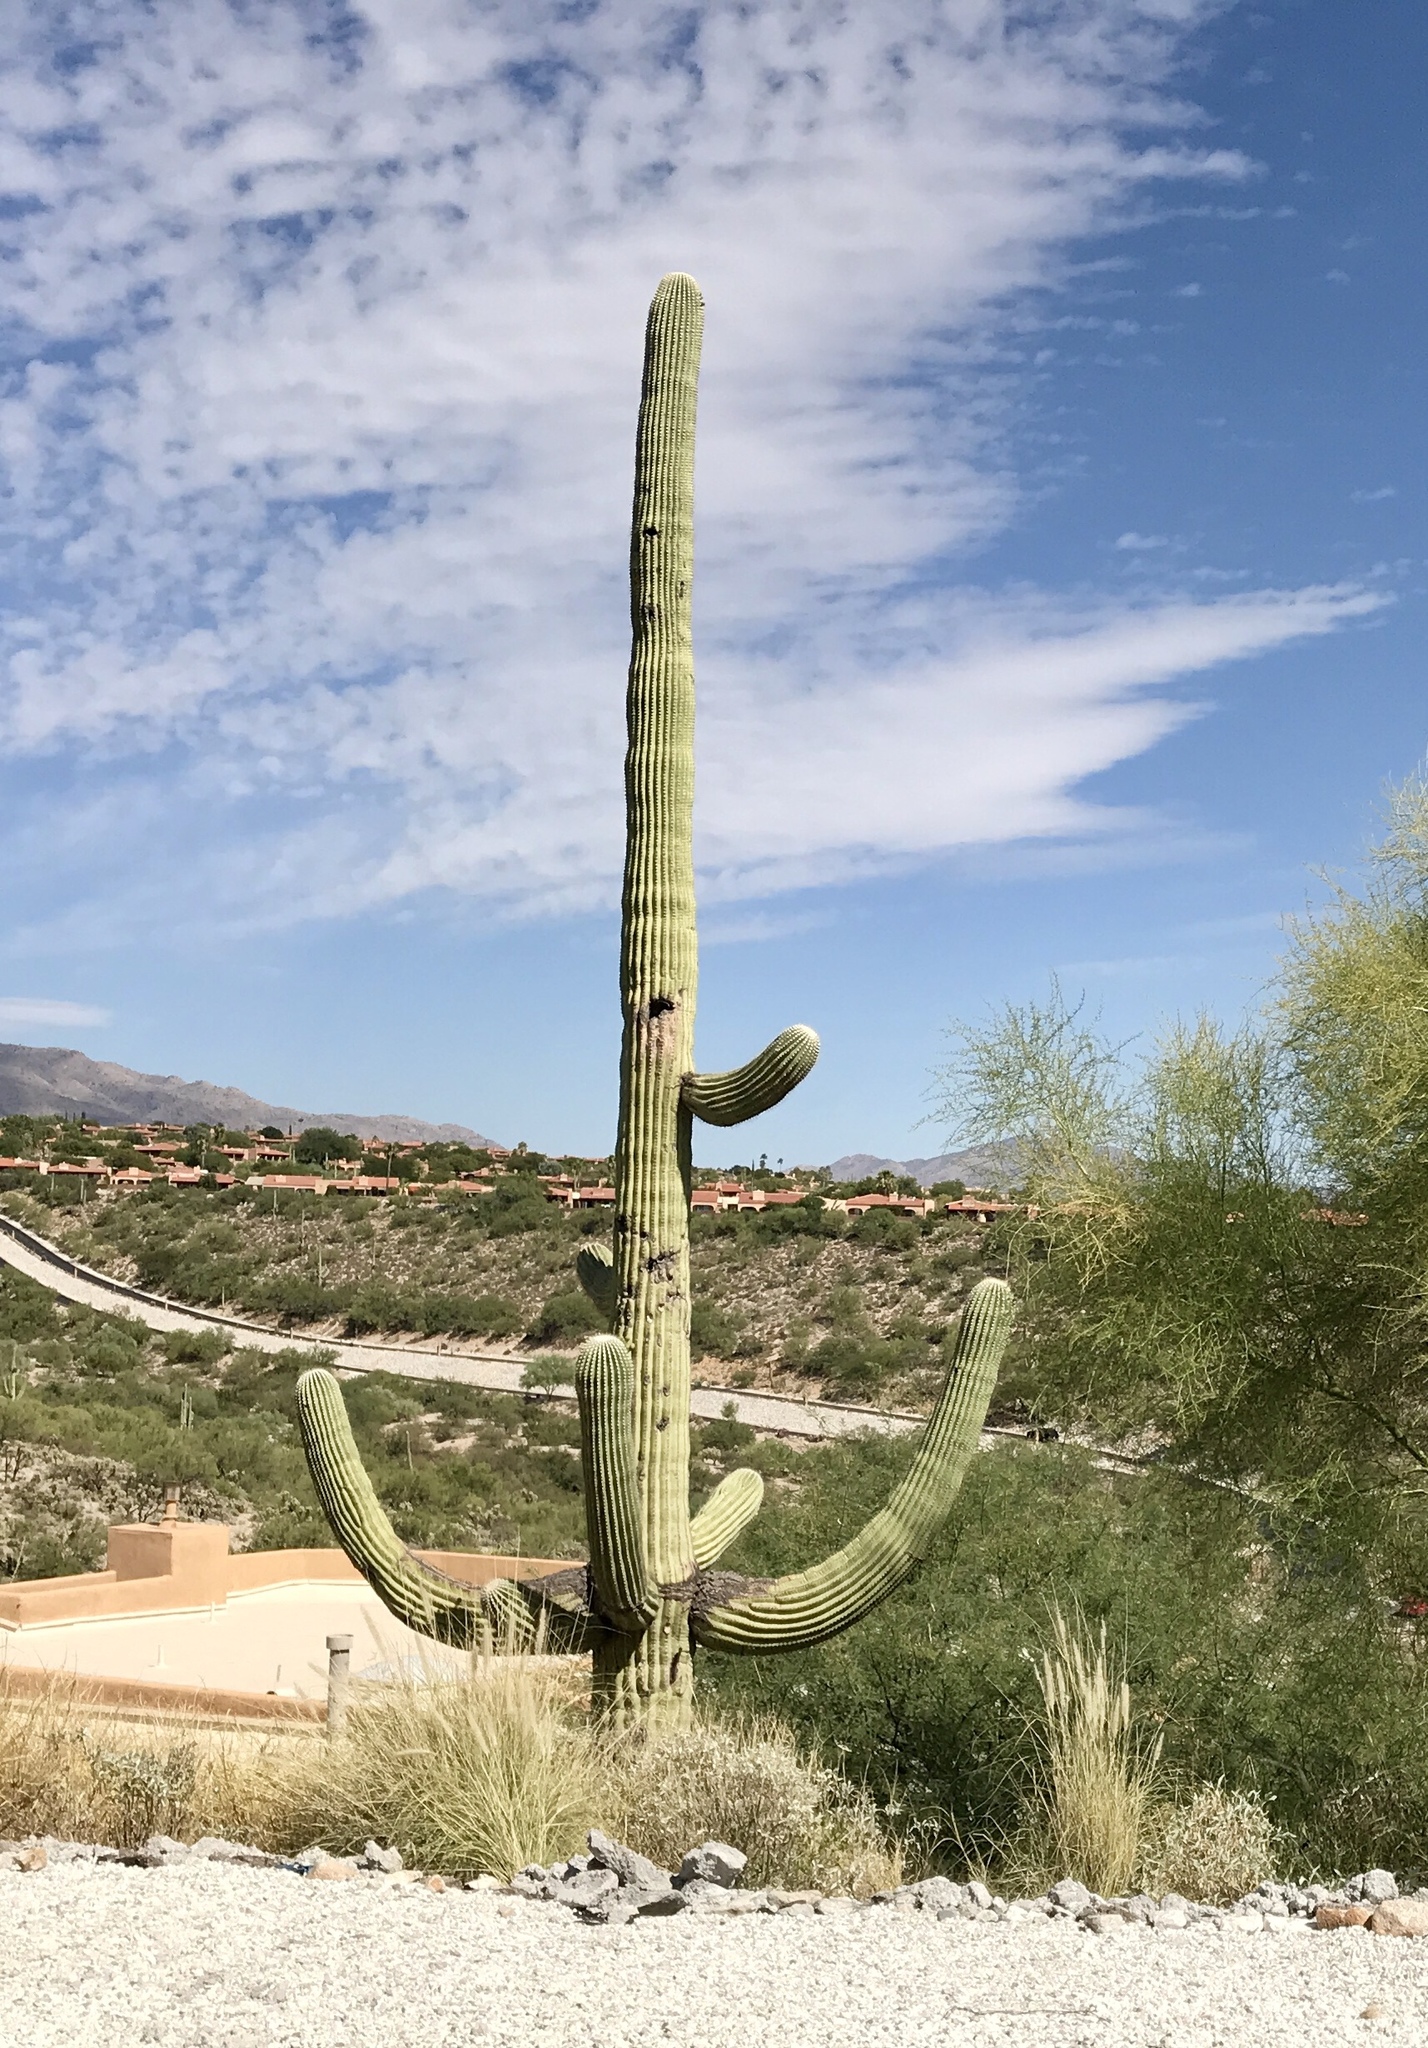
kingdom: Plantae
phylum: Tracheophyta
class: Magnoliopsida
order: Caryophyllales
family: Cactaceae
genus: Carnegiea
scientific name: Carnegiea gigantea
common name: Saguaro
